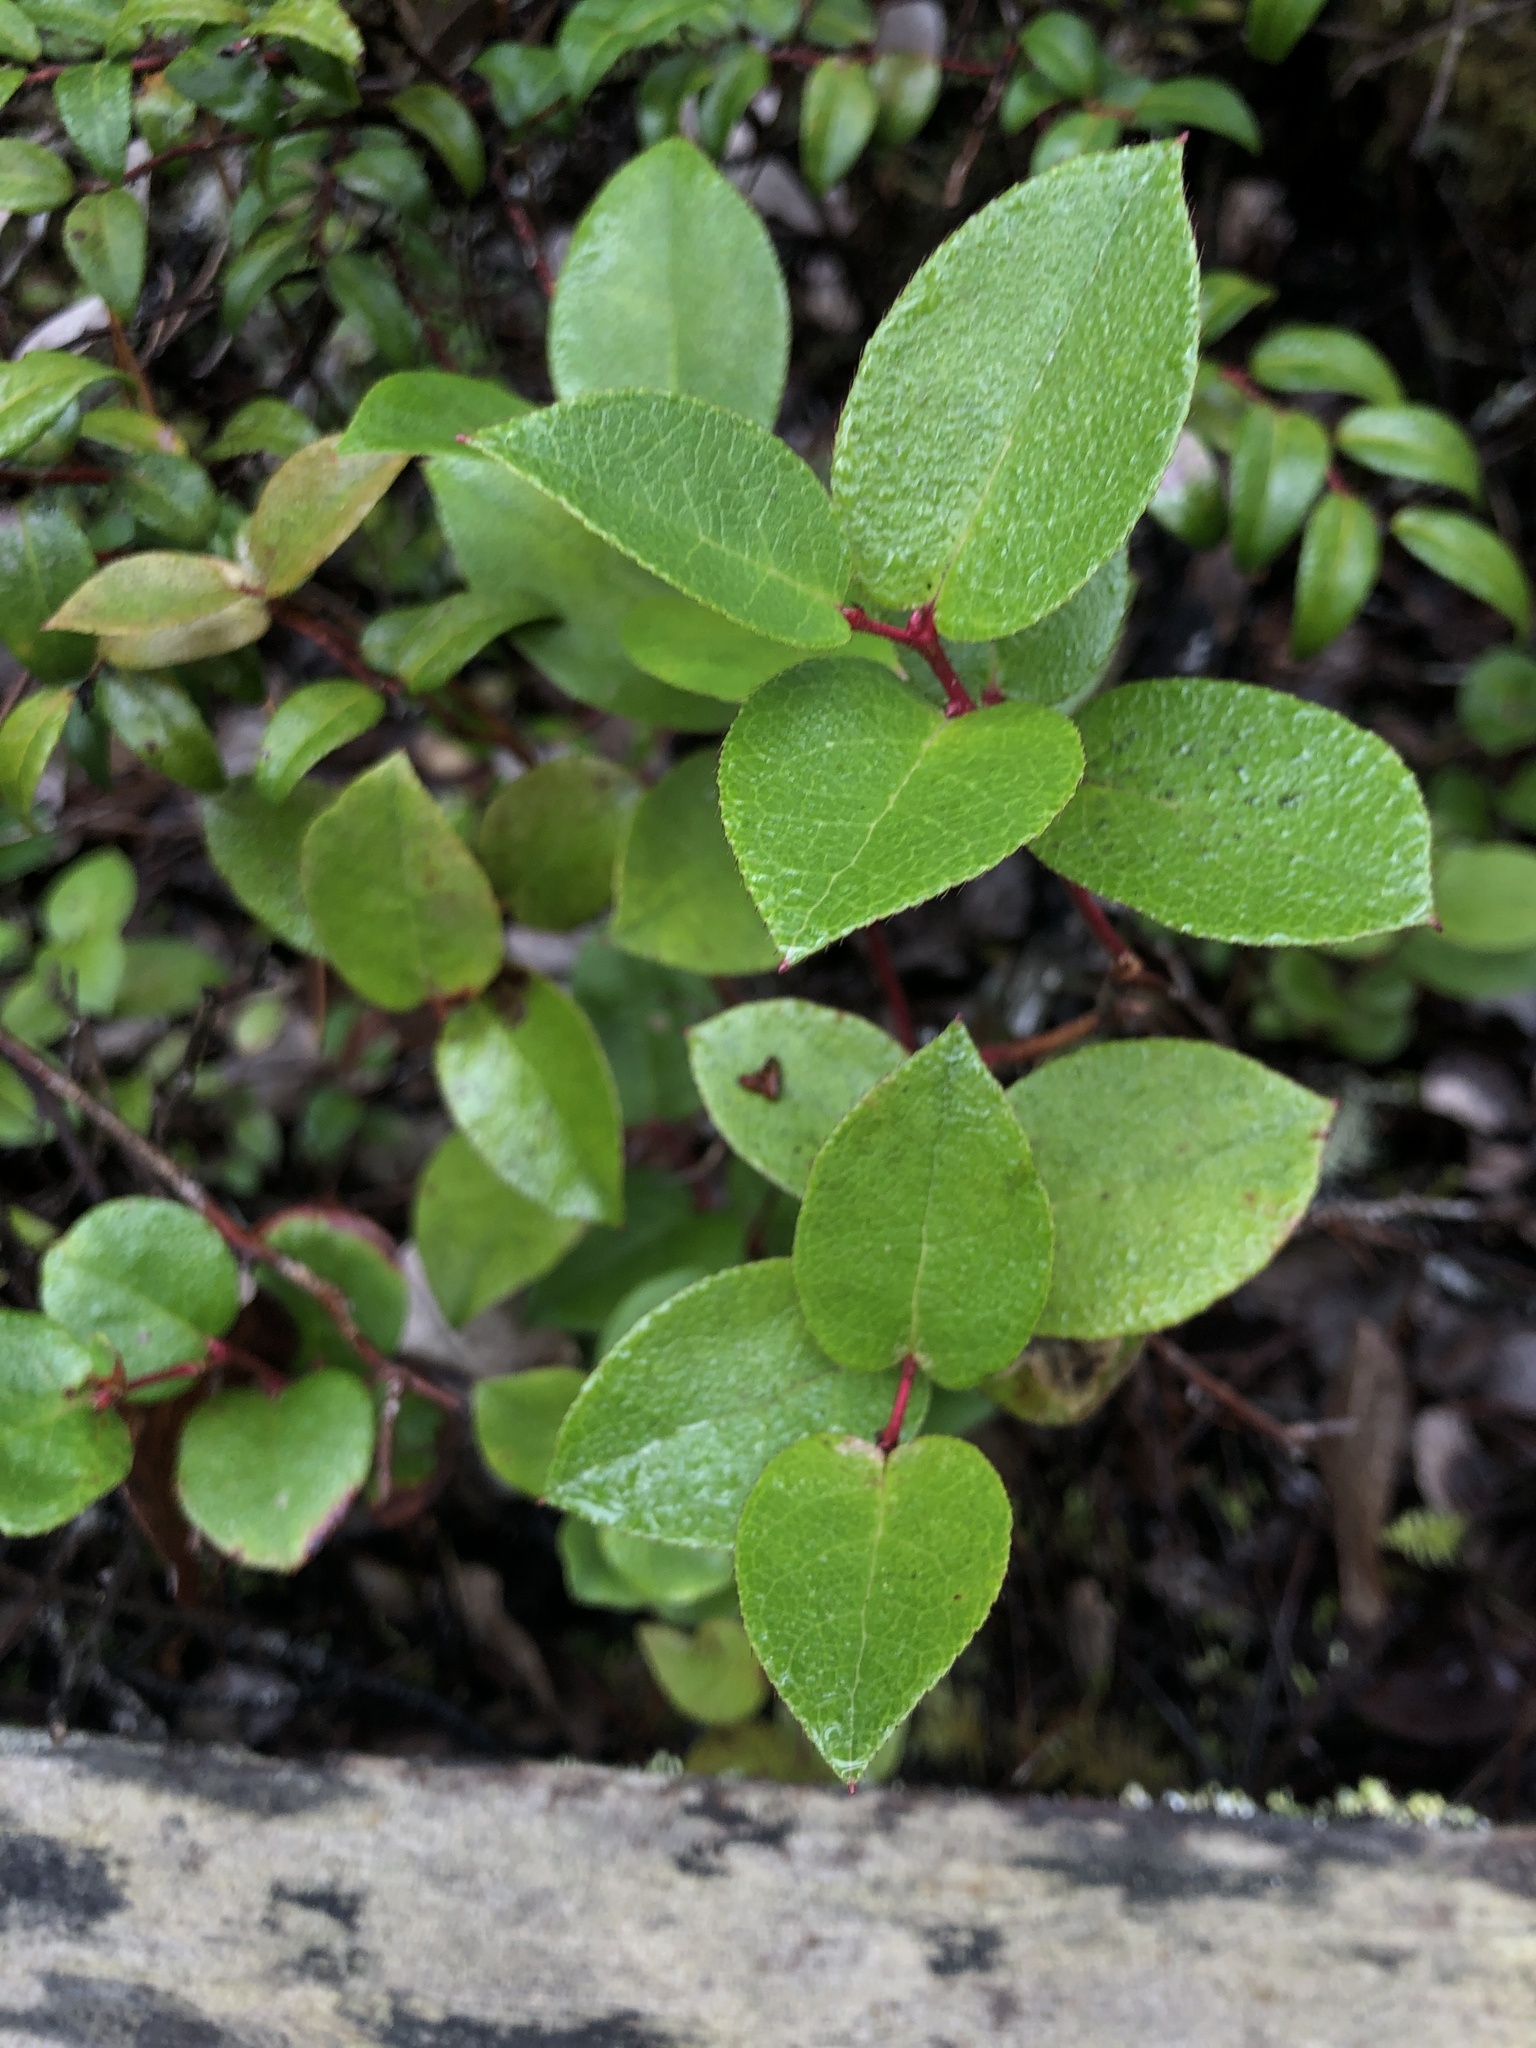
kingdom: Plantae
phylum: Tracheophyta
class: Magnoliopsida
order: Ericales
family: Ericaceae
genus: Gaultheria
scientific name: Gaultheria shallon
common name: Shallon
